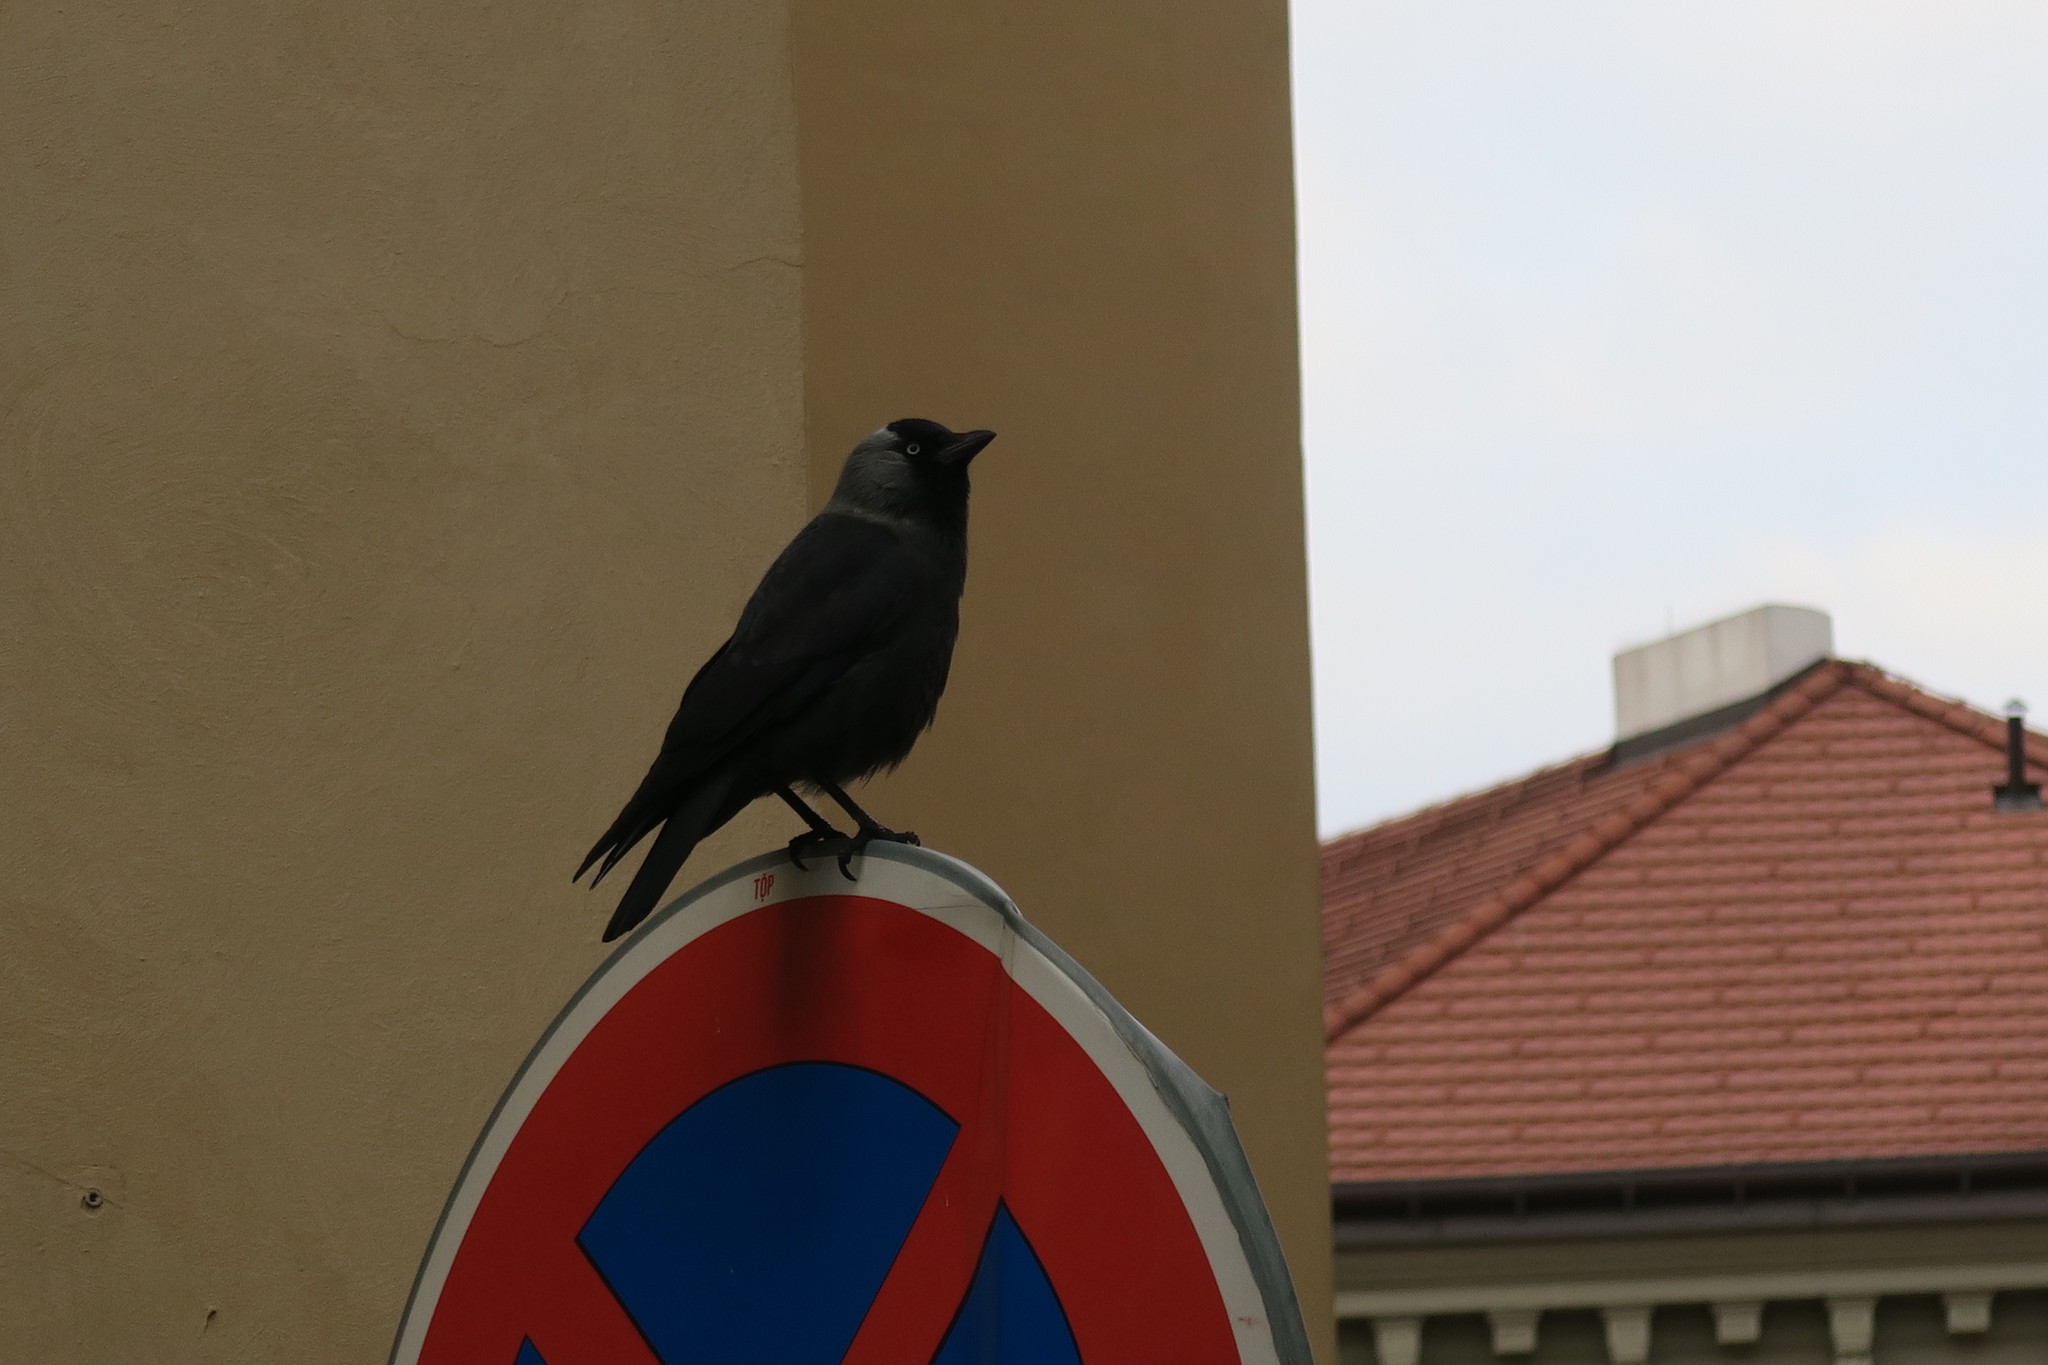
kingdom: Animalia
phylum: Chordata
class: Aves
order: Passeriformes
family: Corvidae
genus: Coloeus
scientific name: Coloeus monedula
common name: Western jackdaw
